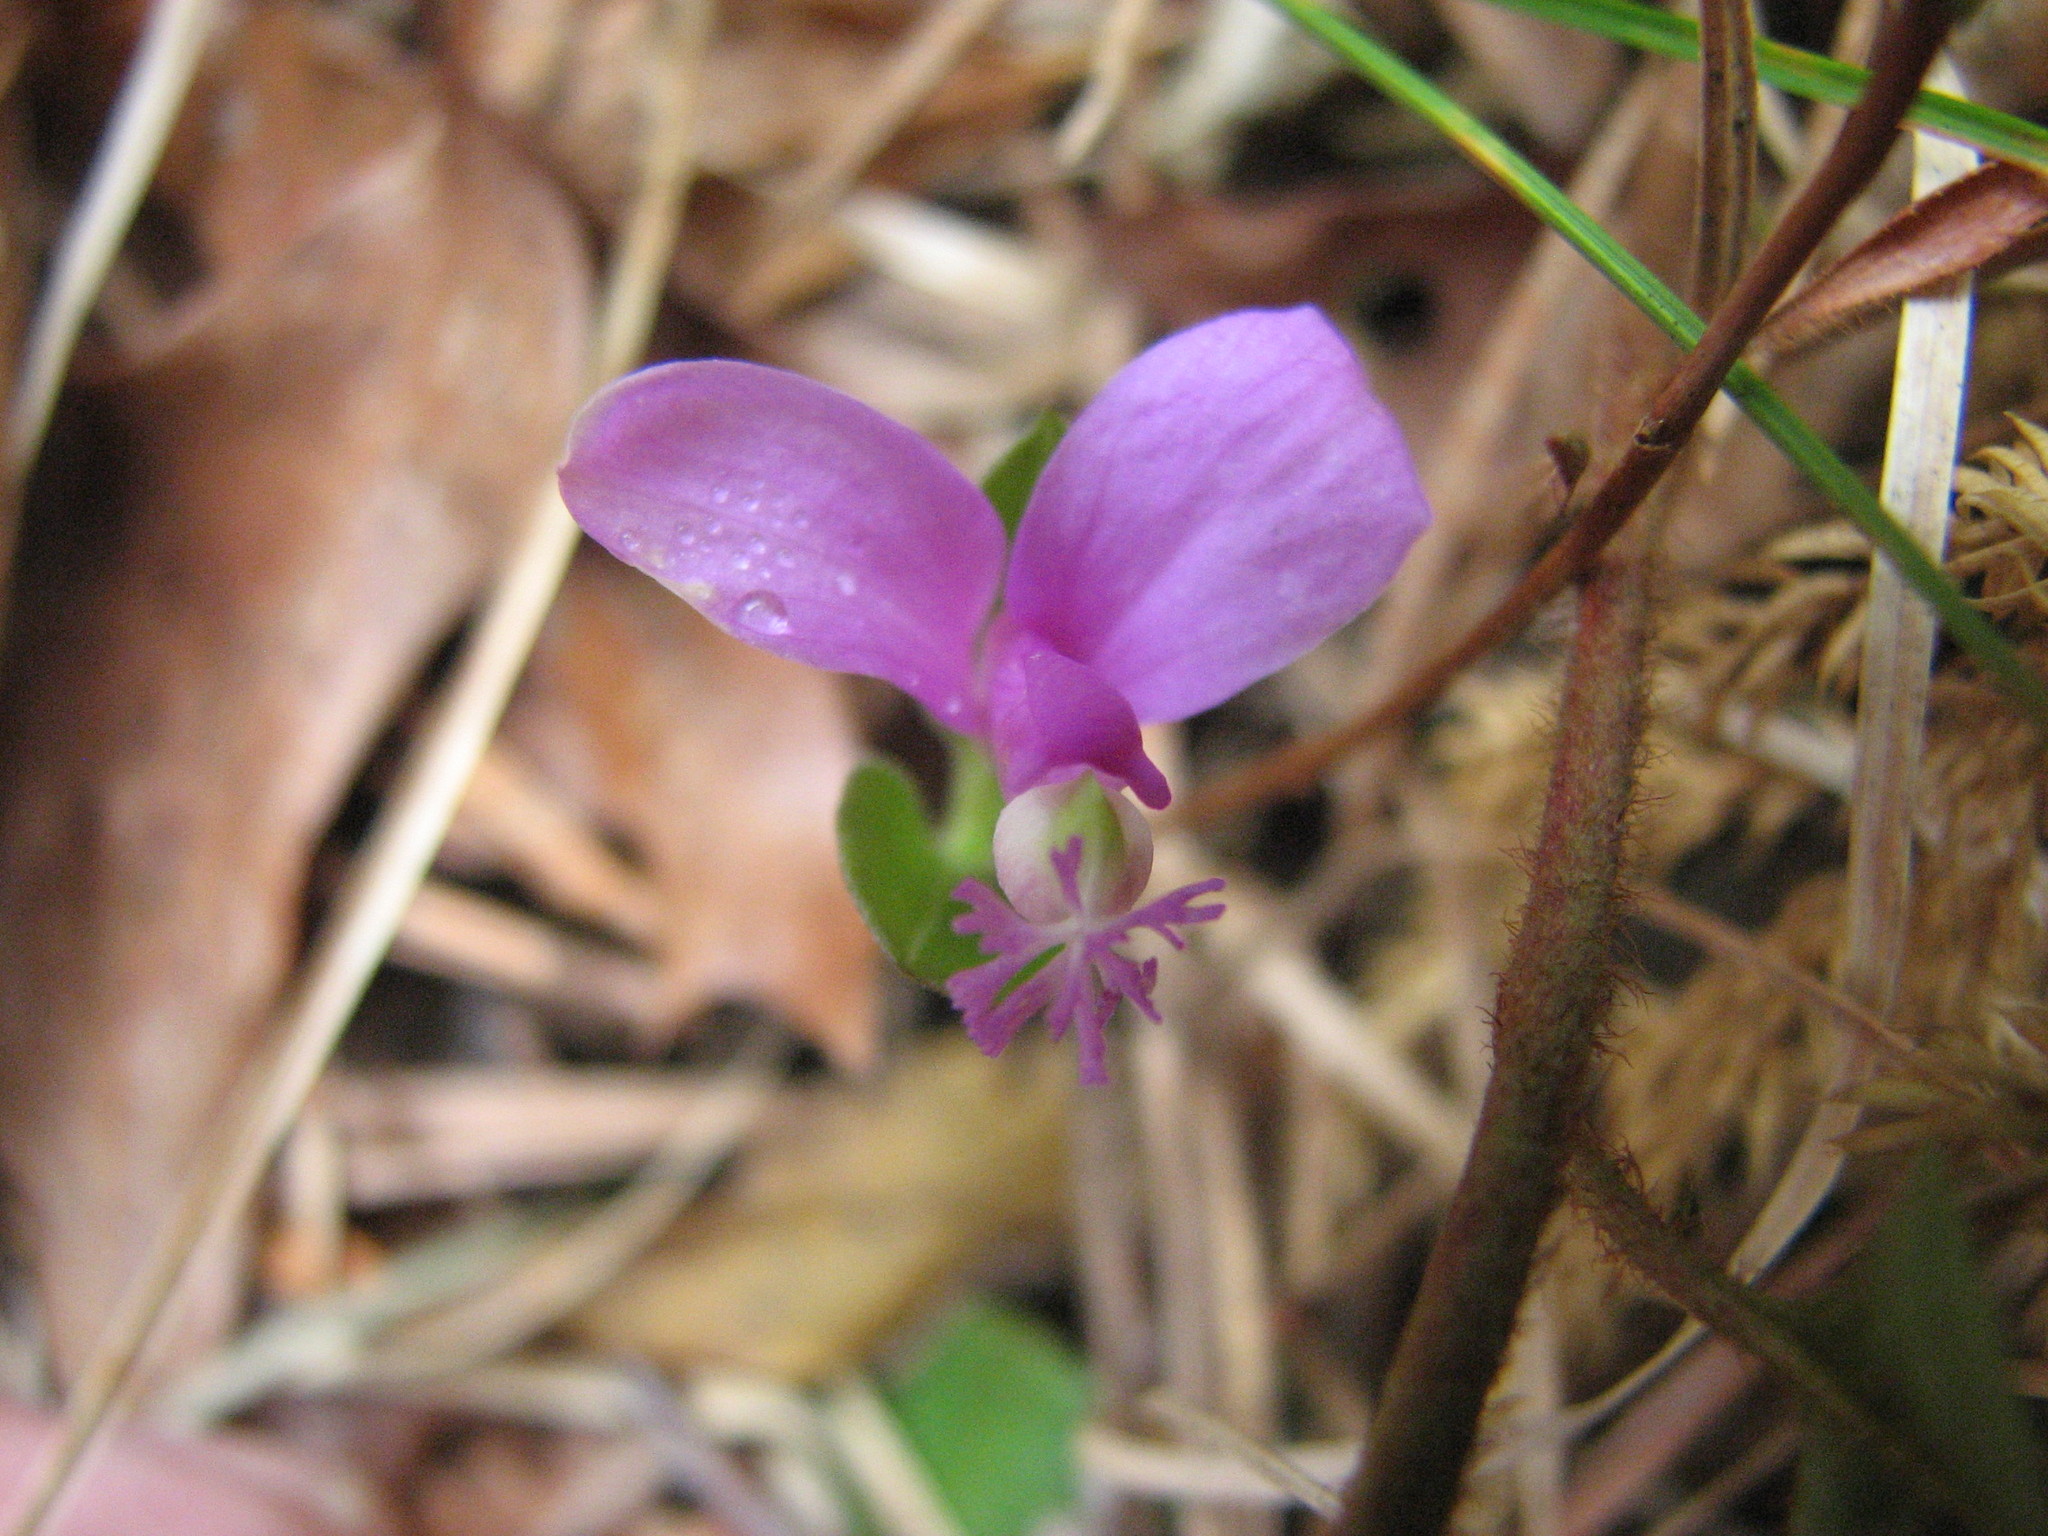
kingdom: Plantae
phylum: Tracheophyta
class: Magnoliopsida
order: Fabales
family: Polygalaceae
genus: Polygaloides
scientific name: Polygaloides paucifolia
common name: Bird-on-the-wing
